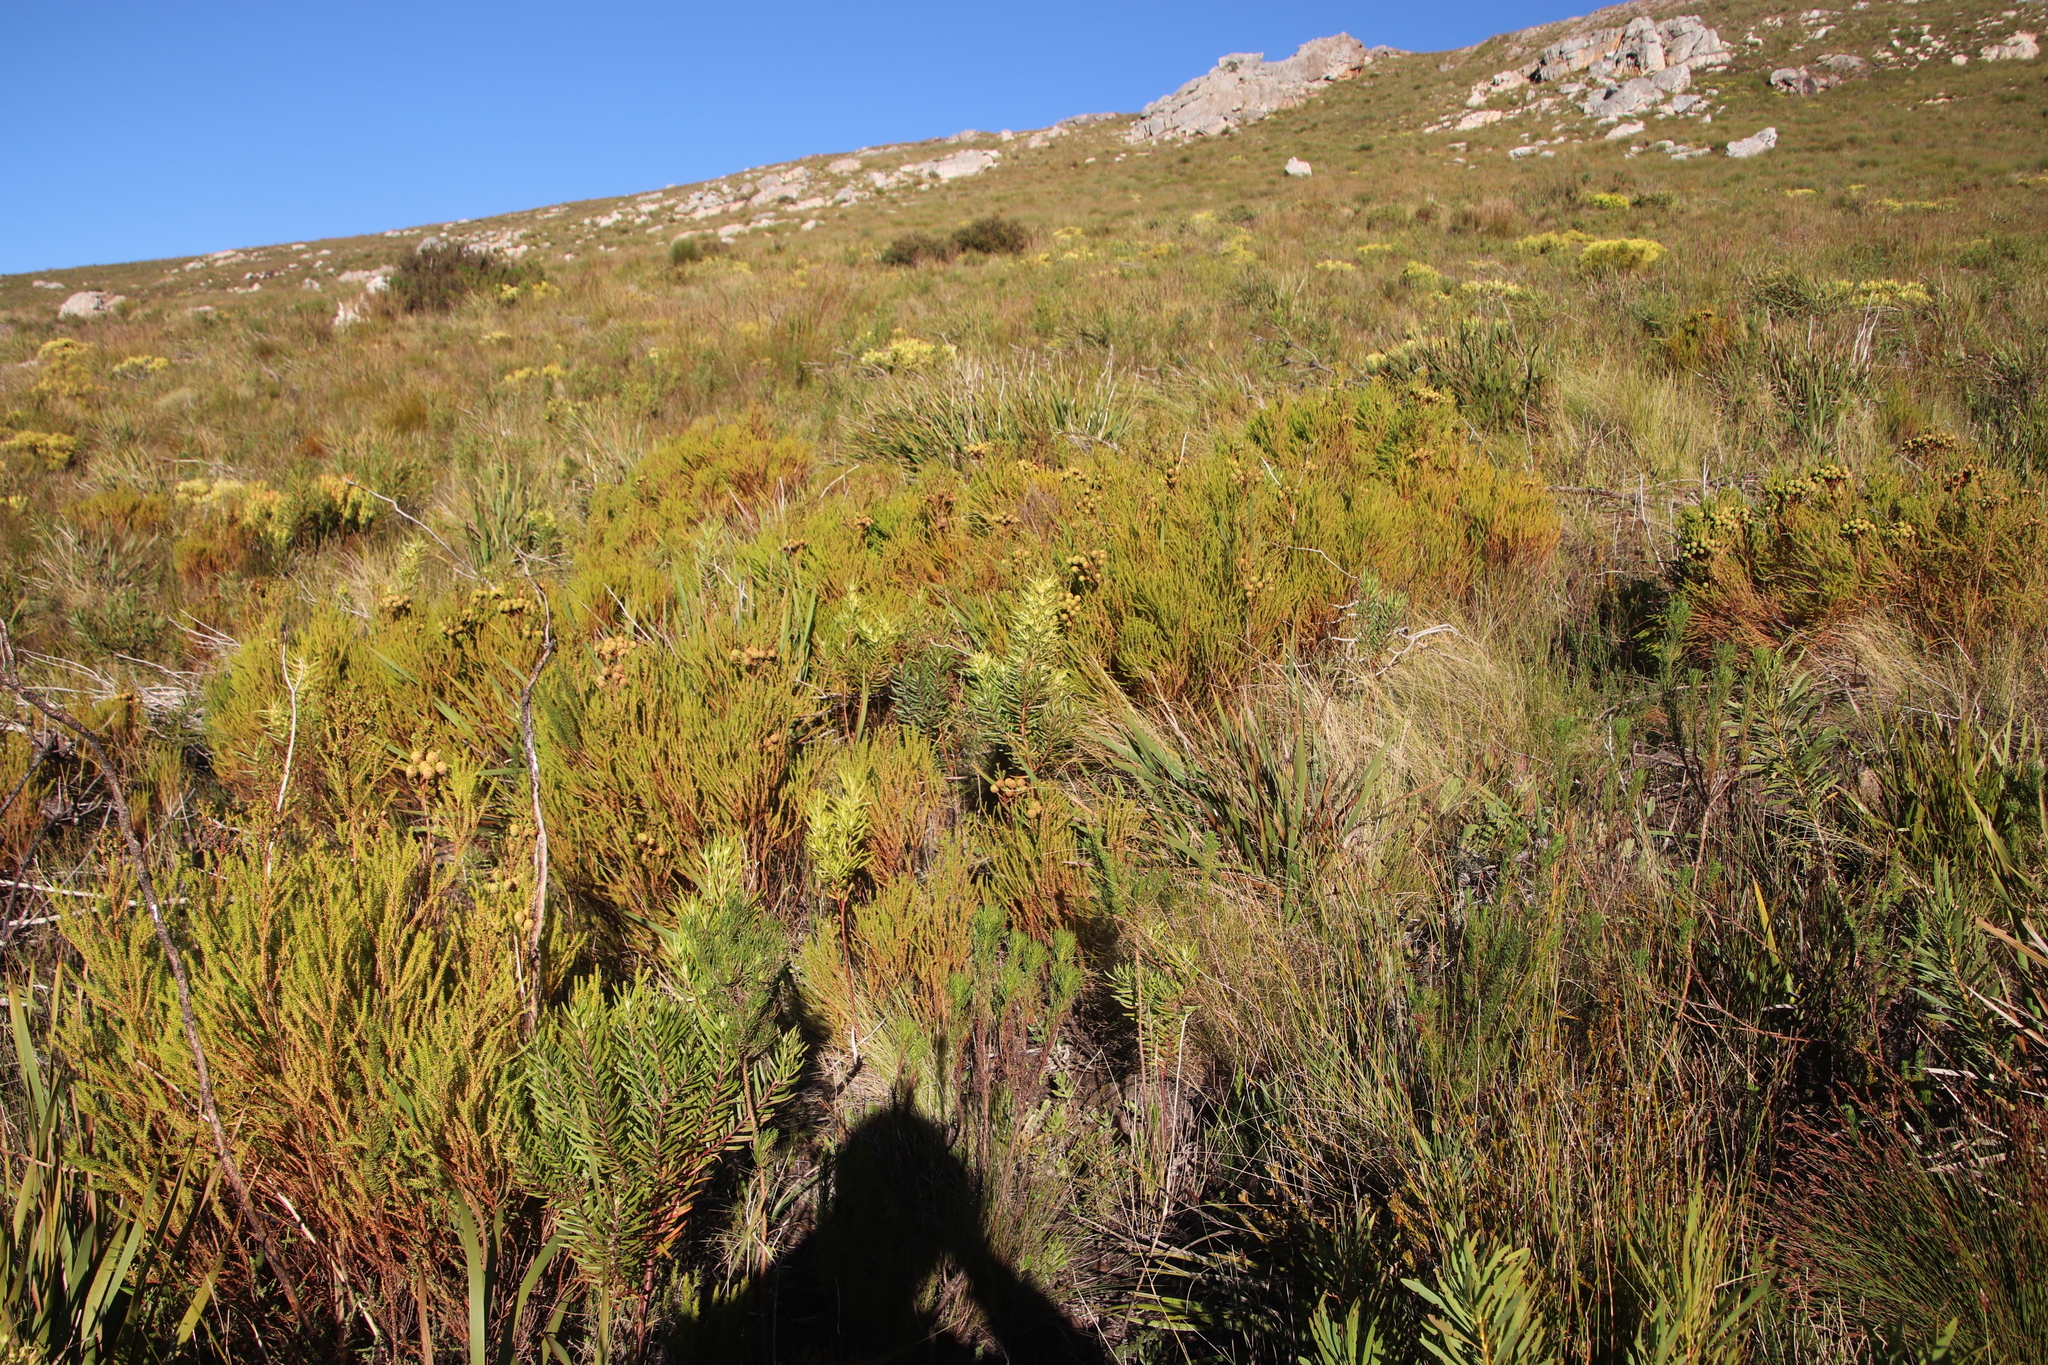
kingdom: Plantae
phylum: Tracheophyta
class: Magnoliopsida
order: Proteales
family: Proteaceae
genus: Leucadendron
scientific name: Leucadendron salicifolium
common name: Common stream conebush
